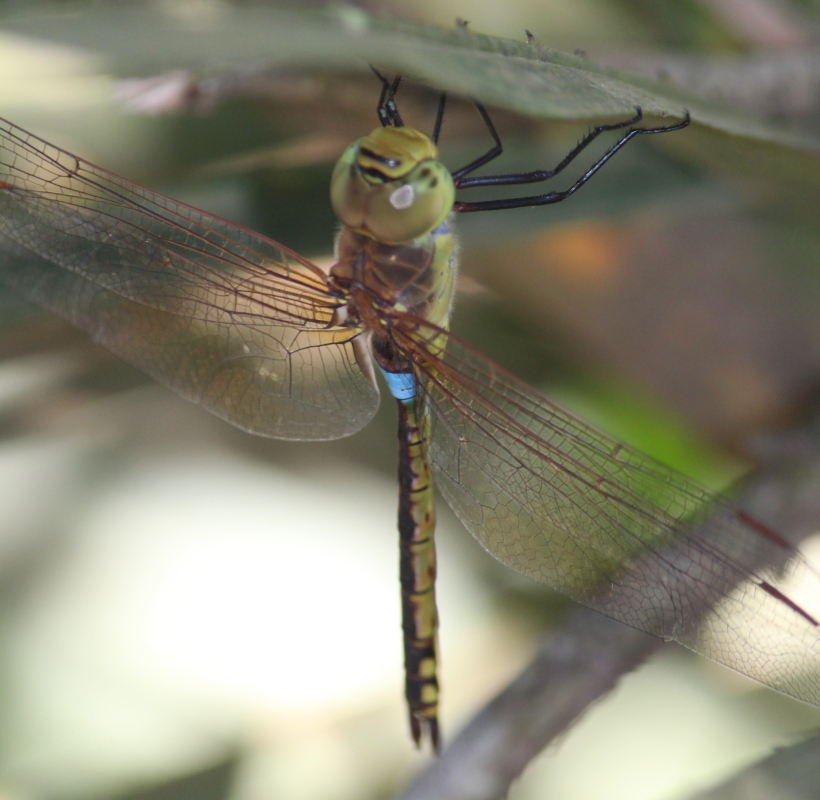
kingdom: Animalia
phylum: Arthropoda
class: Insecta
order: Odonata
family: Aeshnidae
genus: Anax
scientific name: Anax ephippiger
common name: Vagrant emperor
